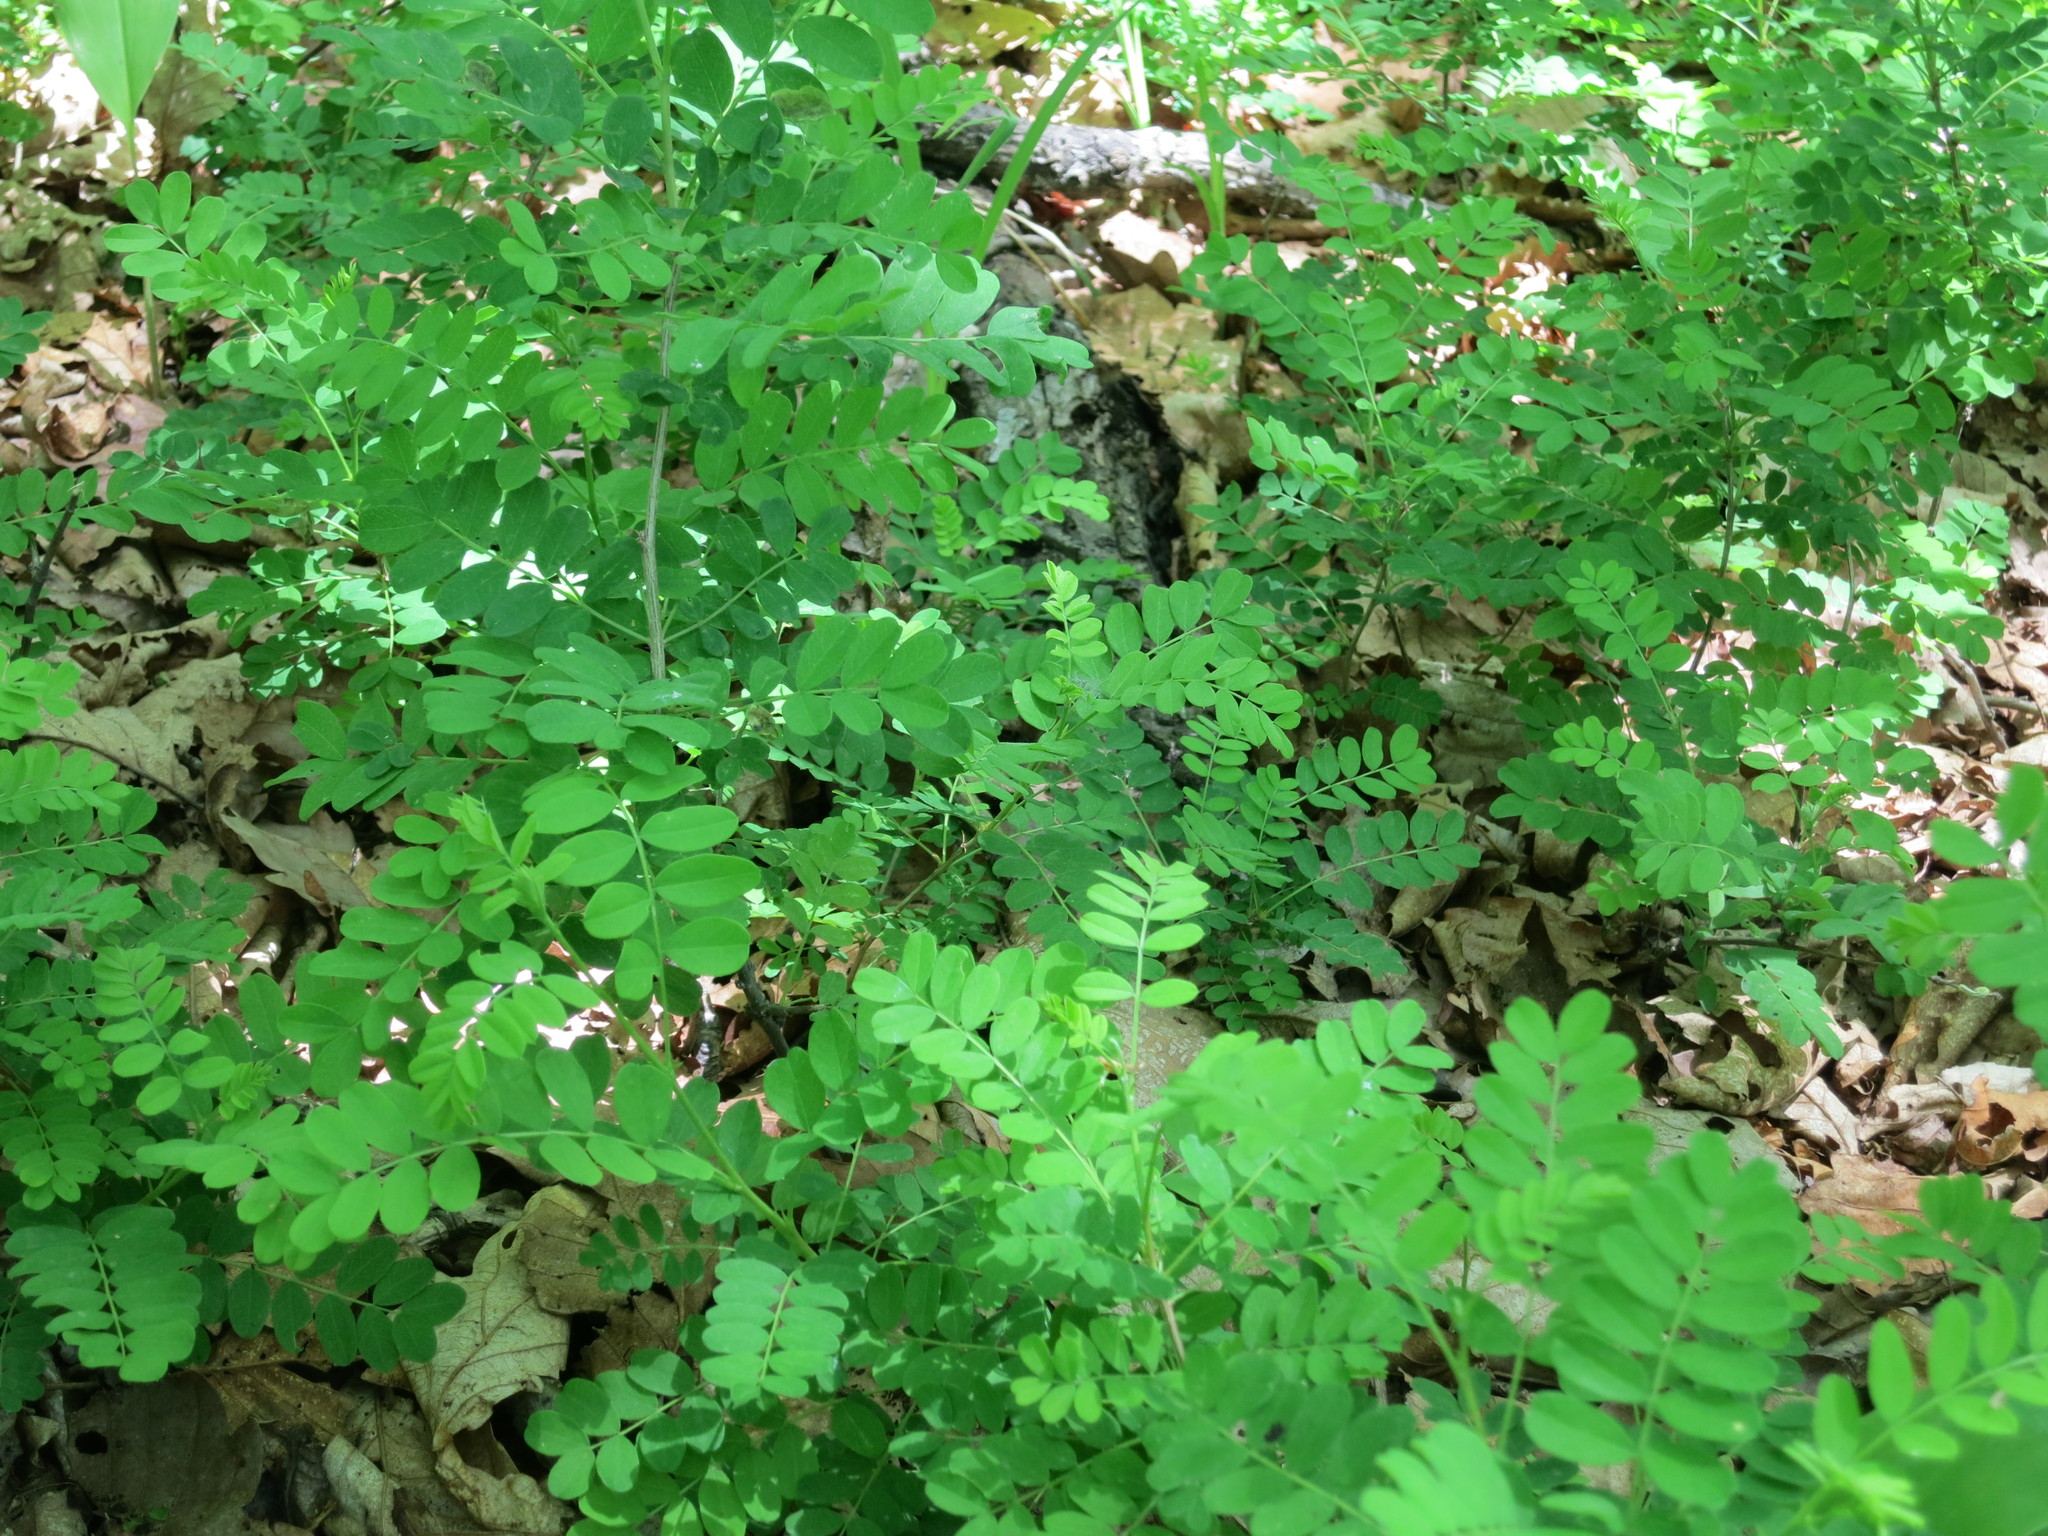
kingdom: Plantae
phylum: Tracheophyta
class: Magnoliopsida
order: Fabales
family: Fabaceae
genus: Caragana
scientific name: Caragana manshurica
